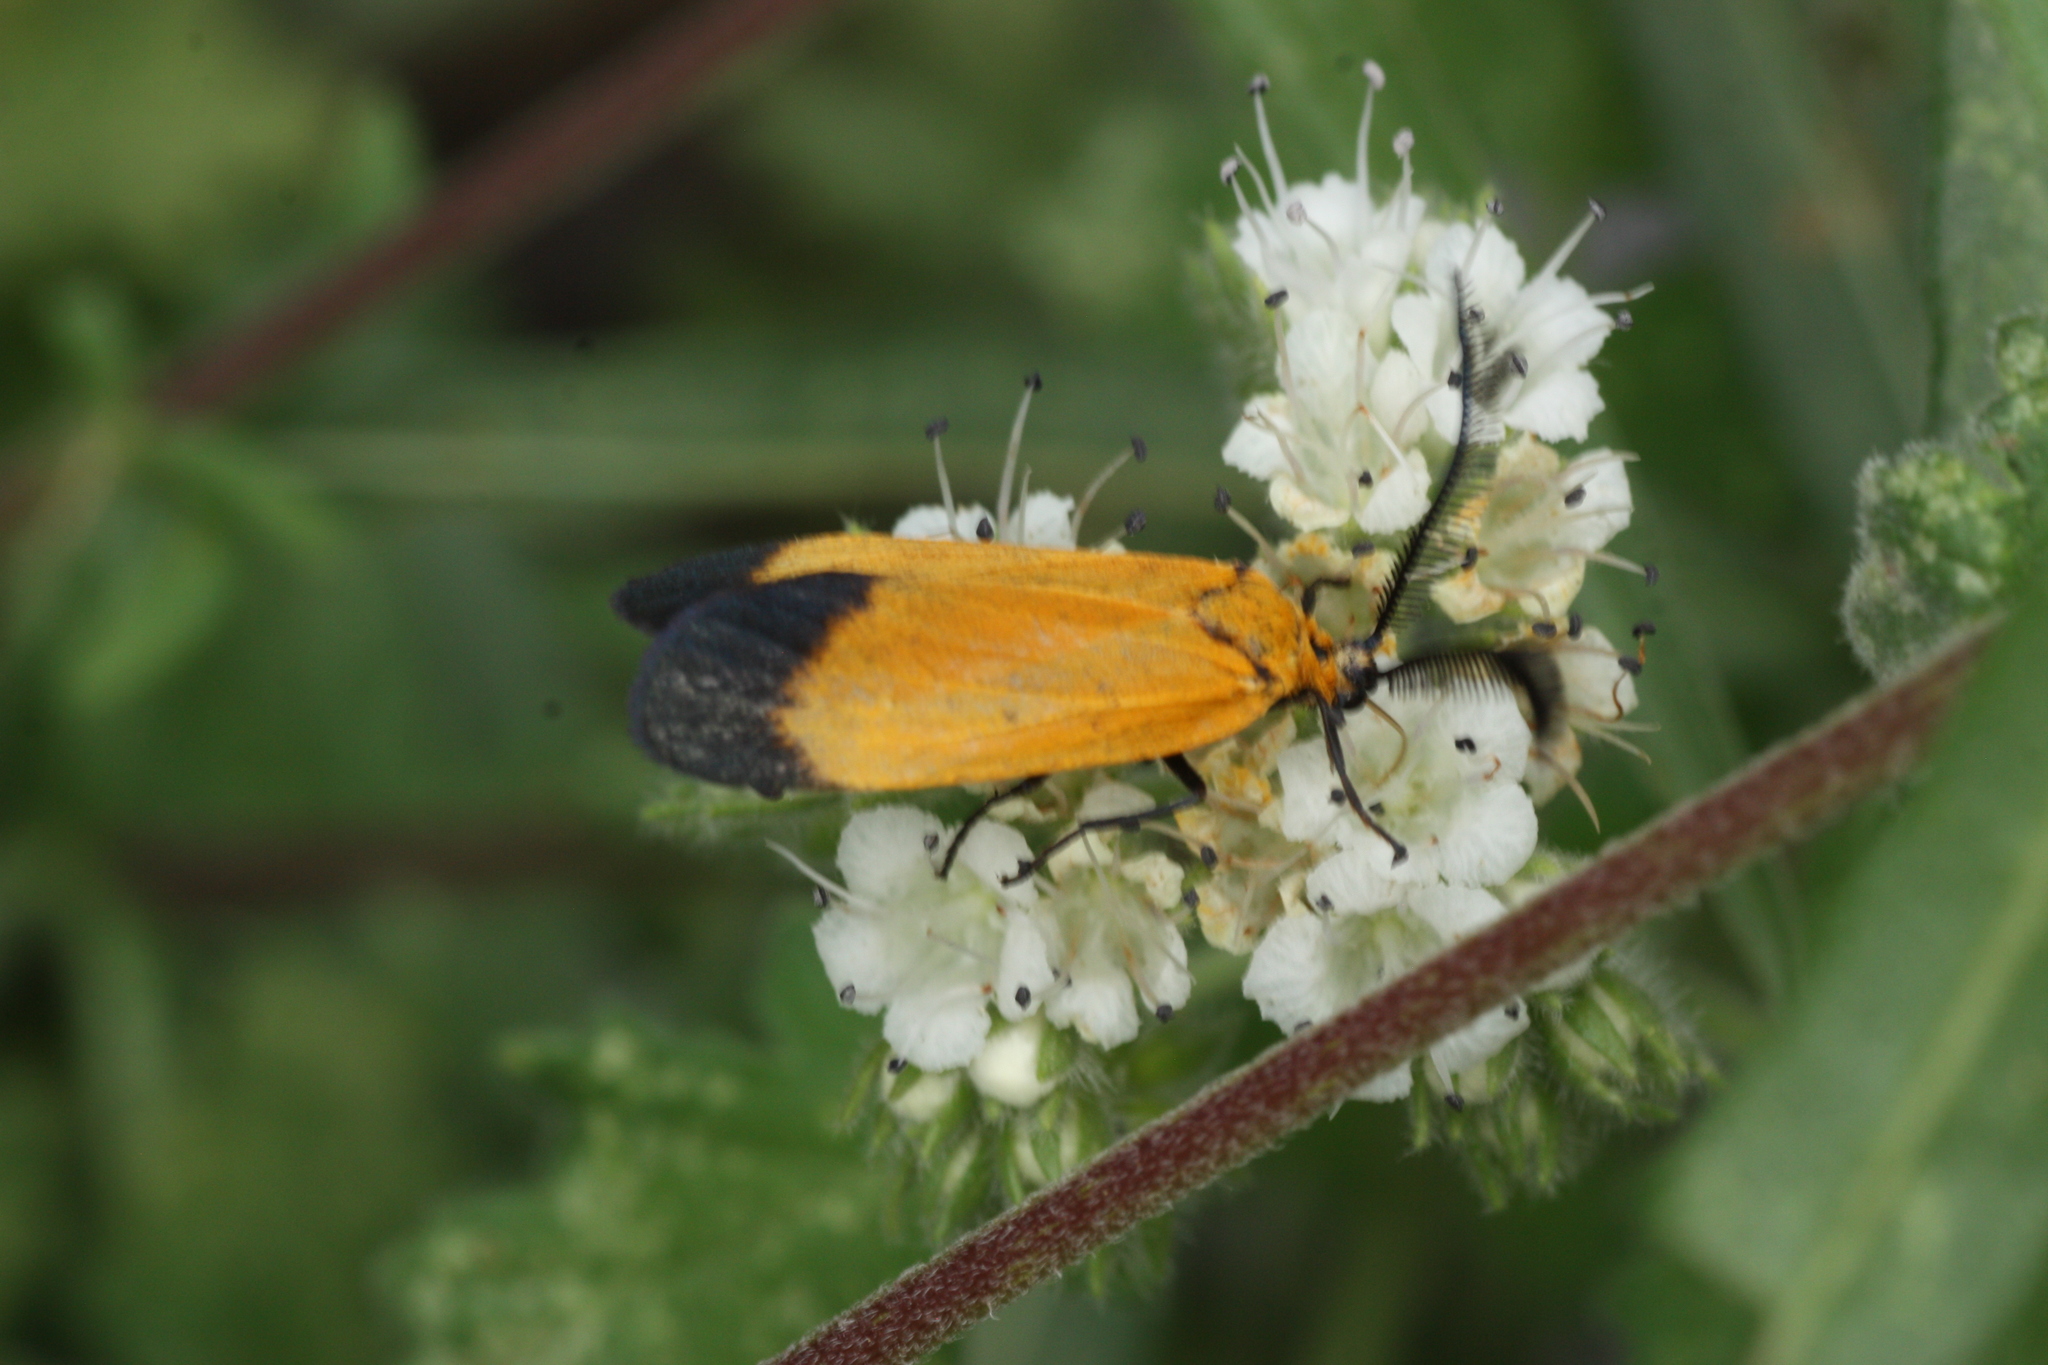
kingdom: Animalia
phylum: Arthropoda
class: Insecta
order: Lepidoptera
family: Zygaenidae
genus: Neoalbertia
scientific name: Neoalbertia constans
